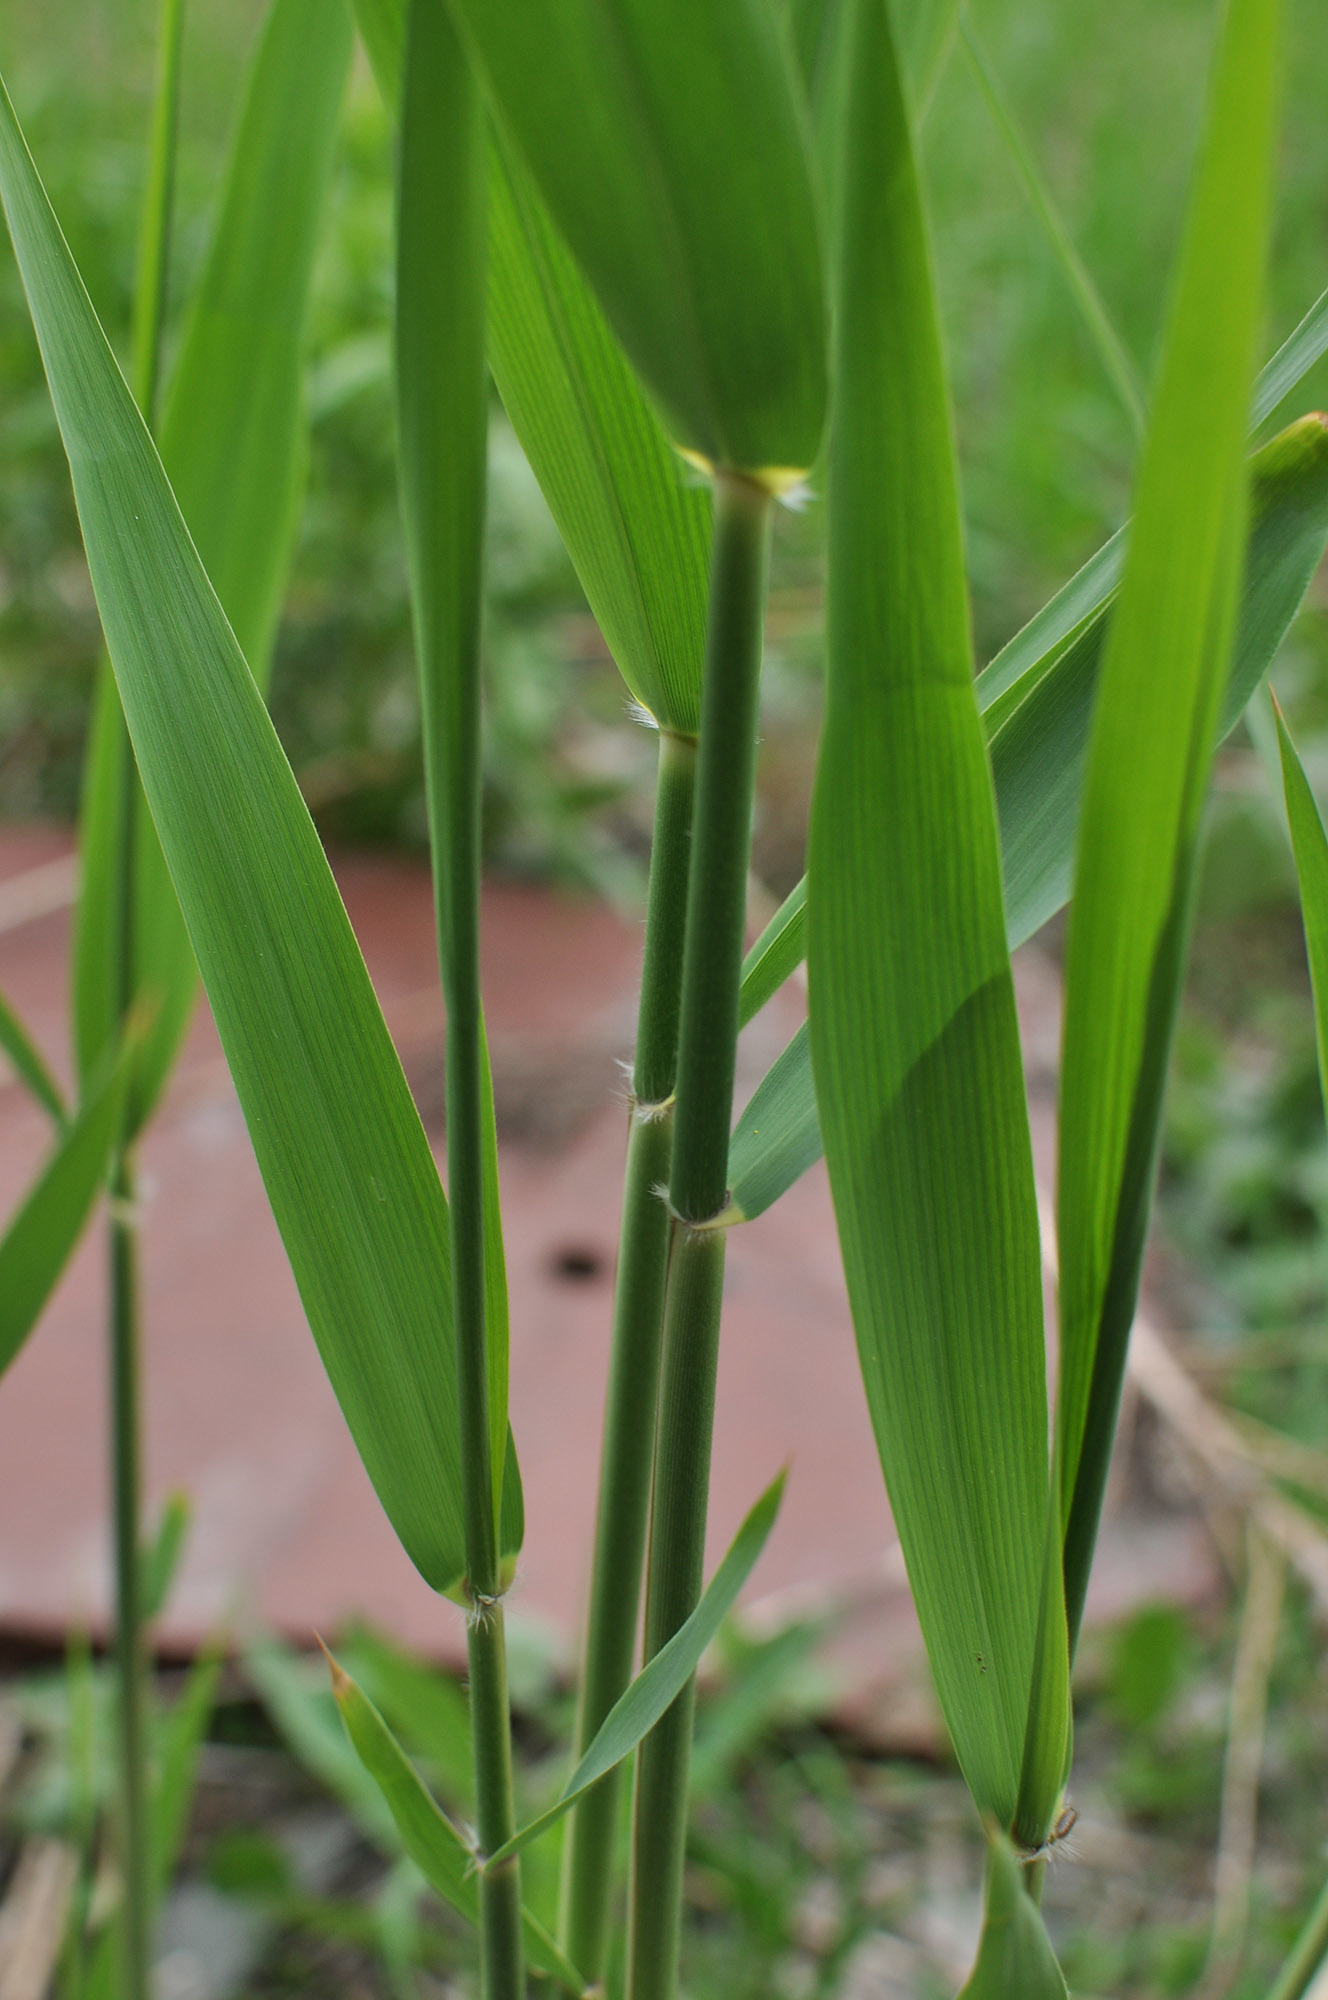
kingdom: Plantae
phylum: Tracheophyta
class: Liliopsida
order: Poales
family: Poaceae
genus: Phragmites
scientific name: Phragmites australis
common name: Common reed
